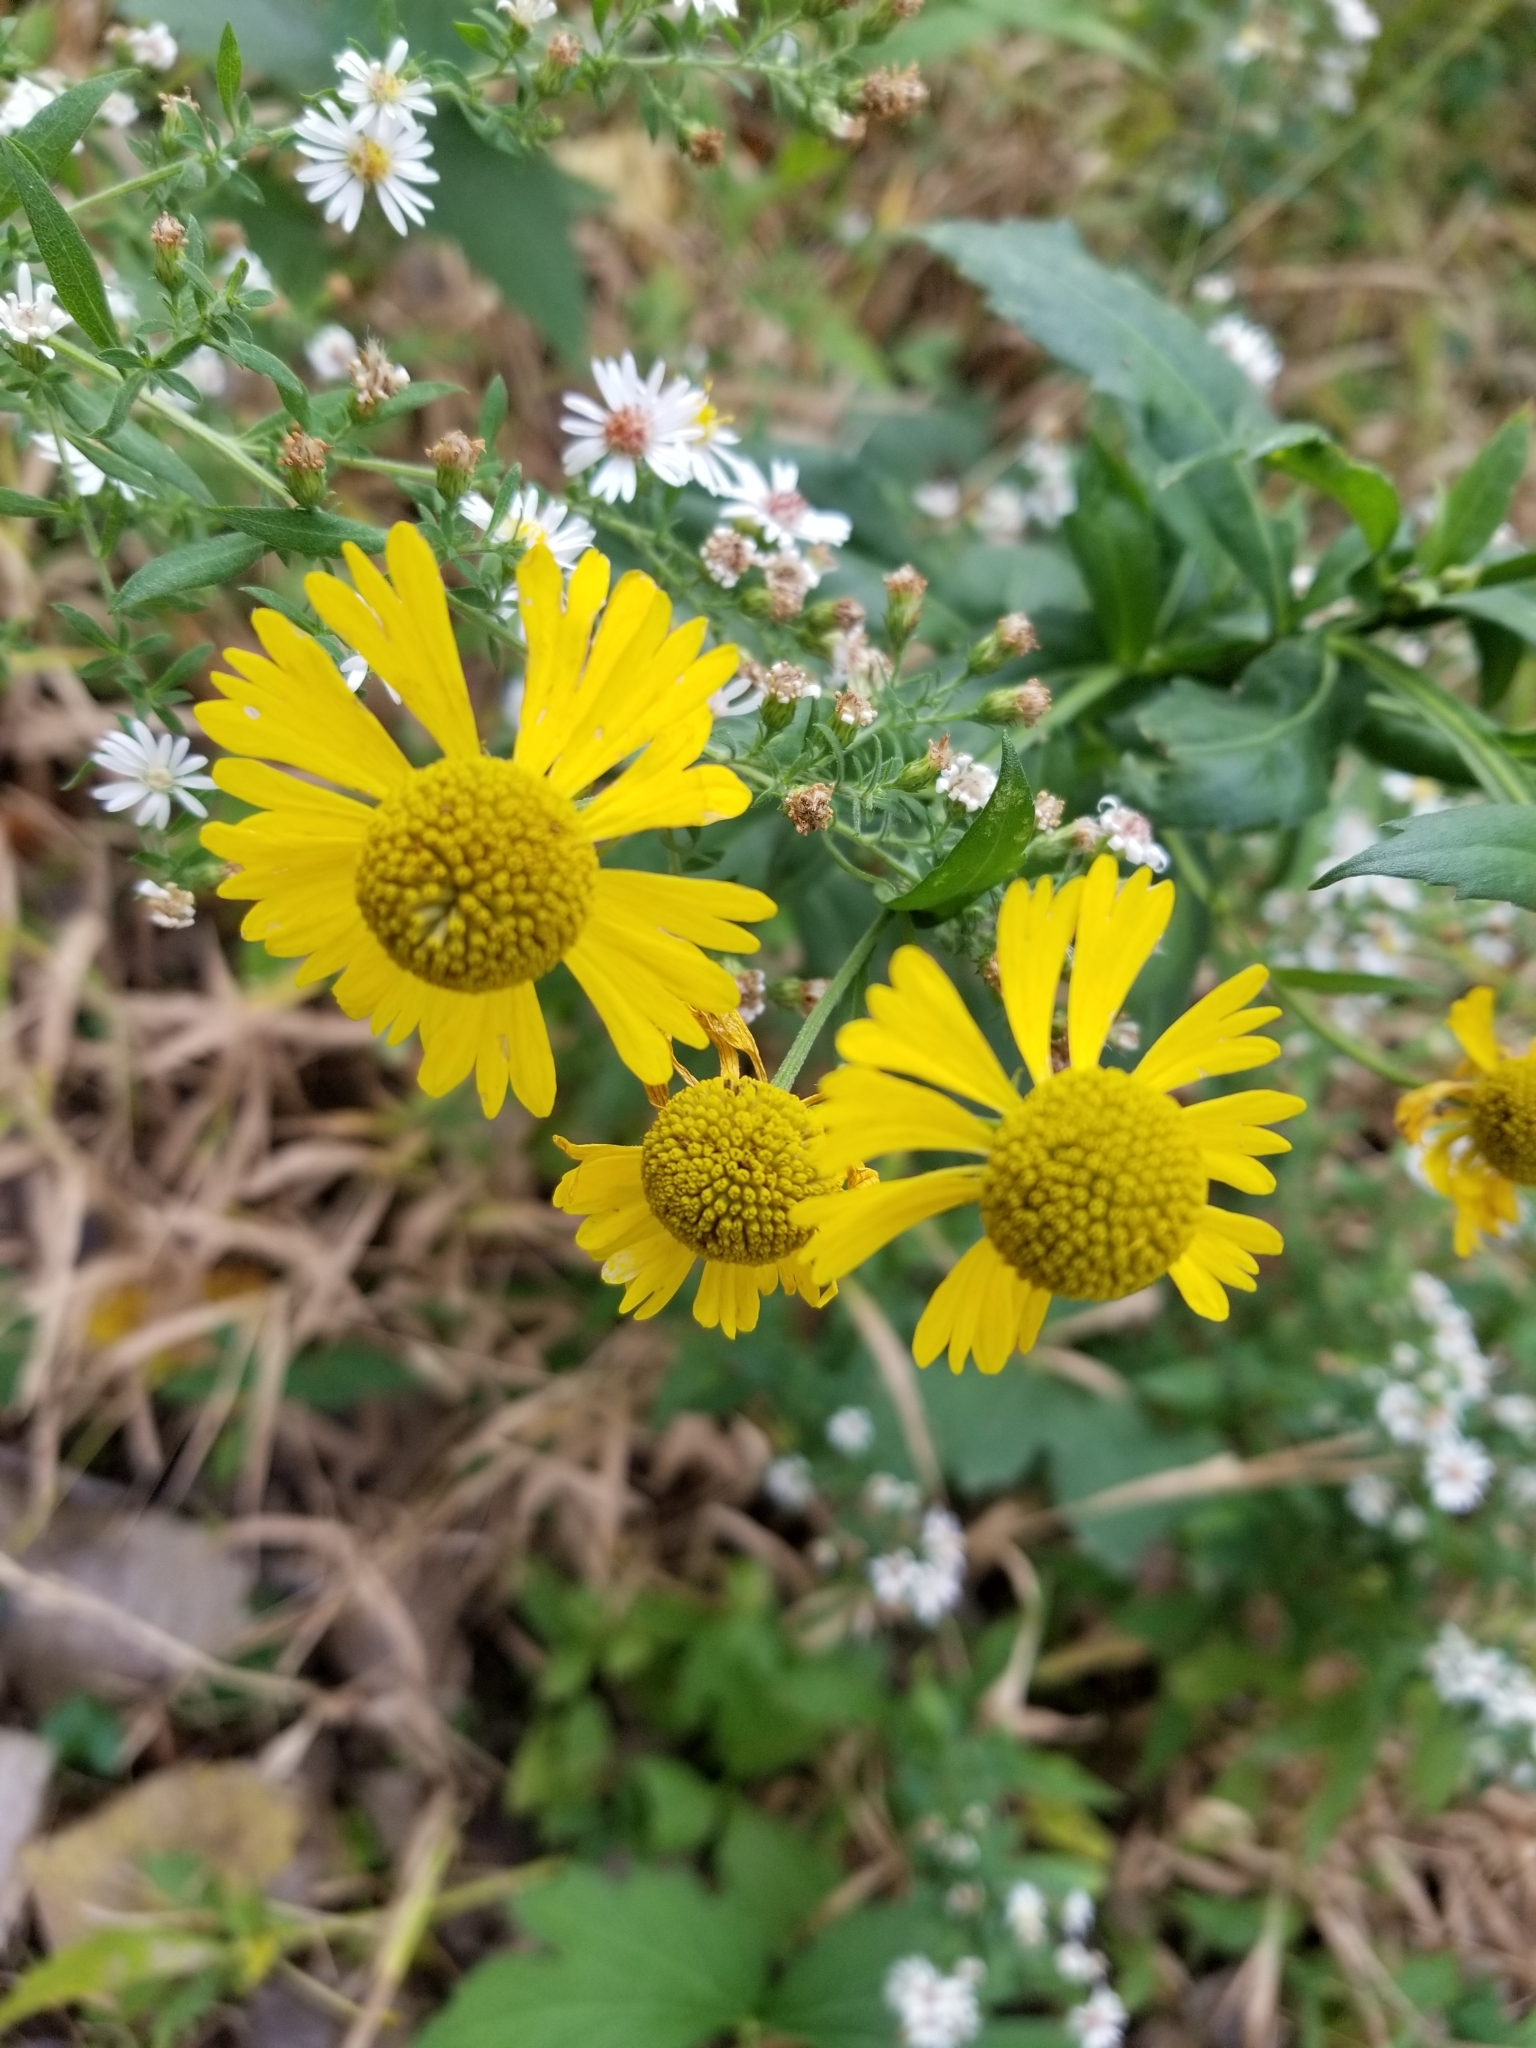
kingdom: Plantae
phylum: Tracheophyta
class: Magnoliopsida
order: Asterales
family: Asteraceae
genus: Helenium
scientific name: Helenium autumnale
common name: Sneezeweed
